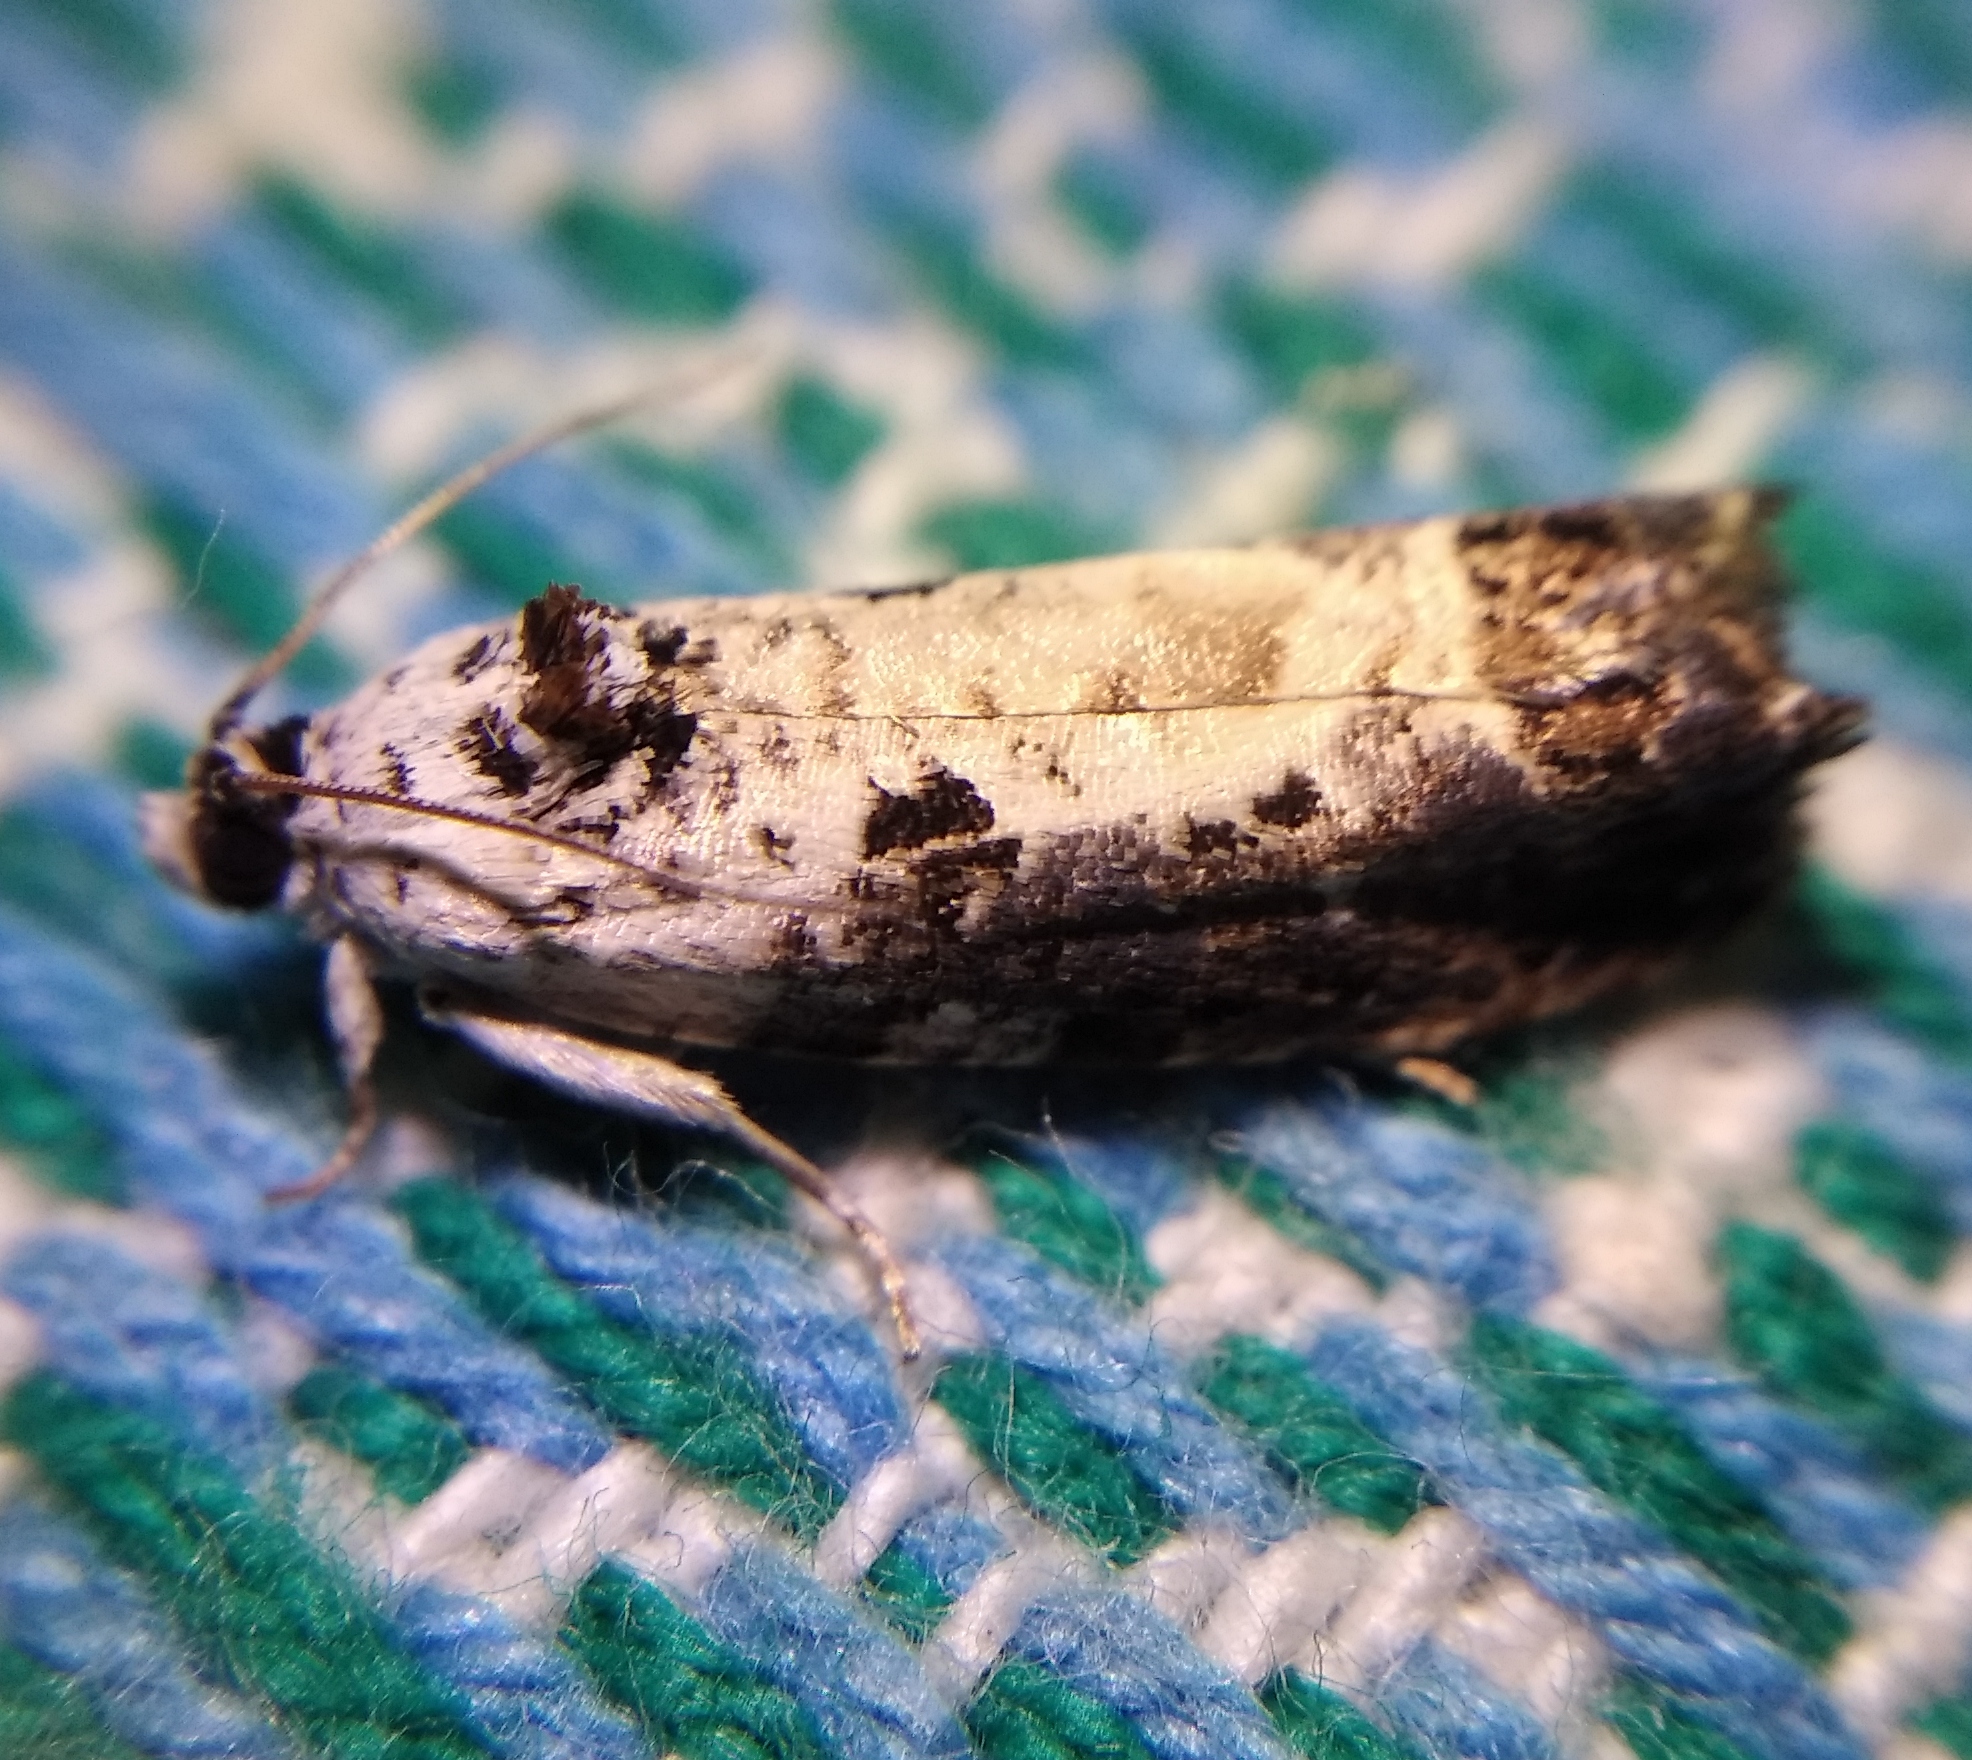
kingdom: Animalia
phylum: Arthropoda
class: Insecta
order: Lepidoptera
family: Tortricidae
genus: Hedya
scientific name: Hedya salicella
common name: Large tortricid moth
